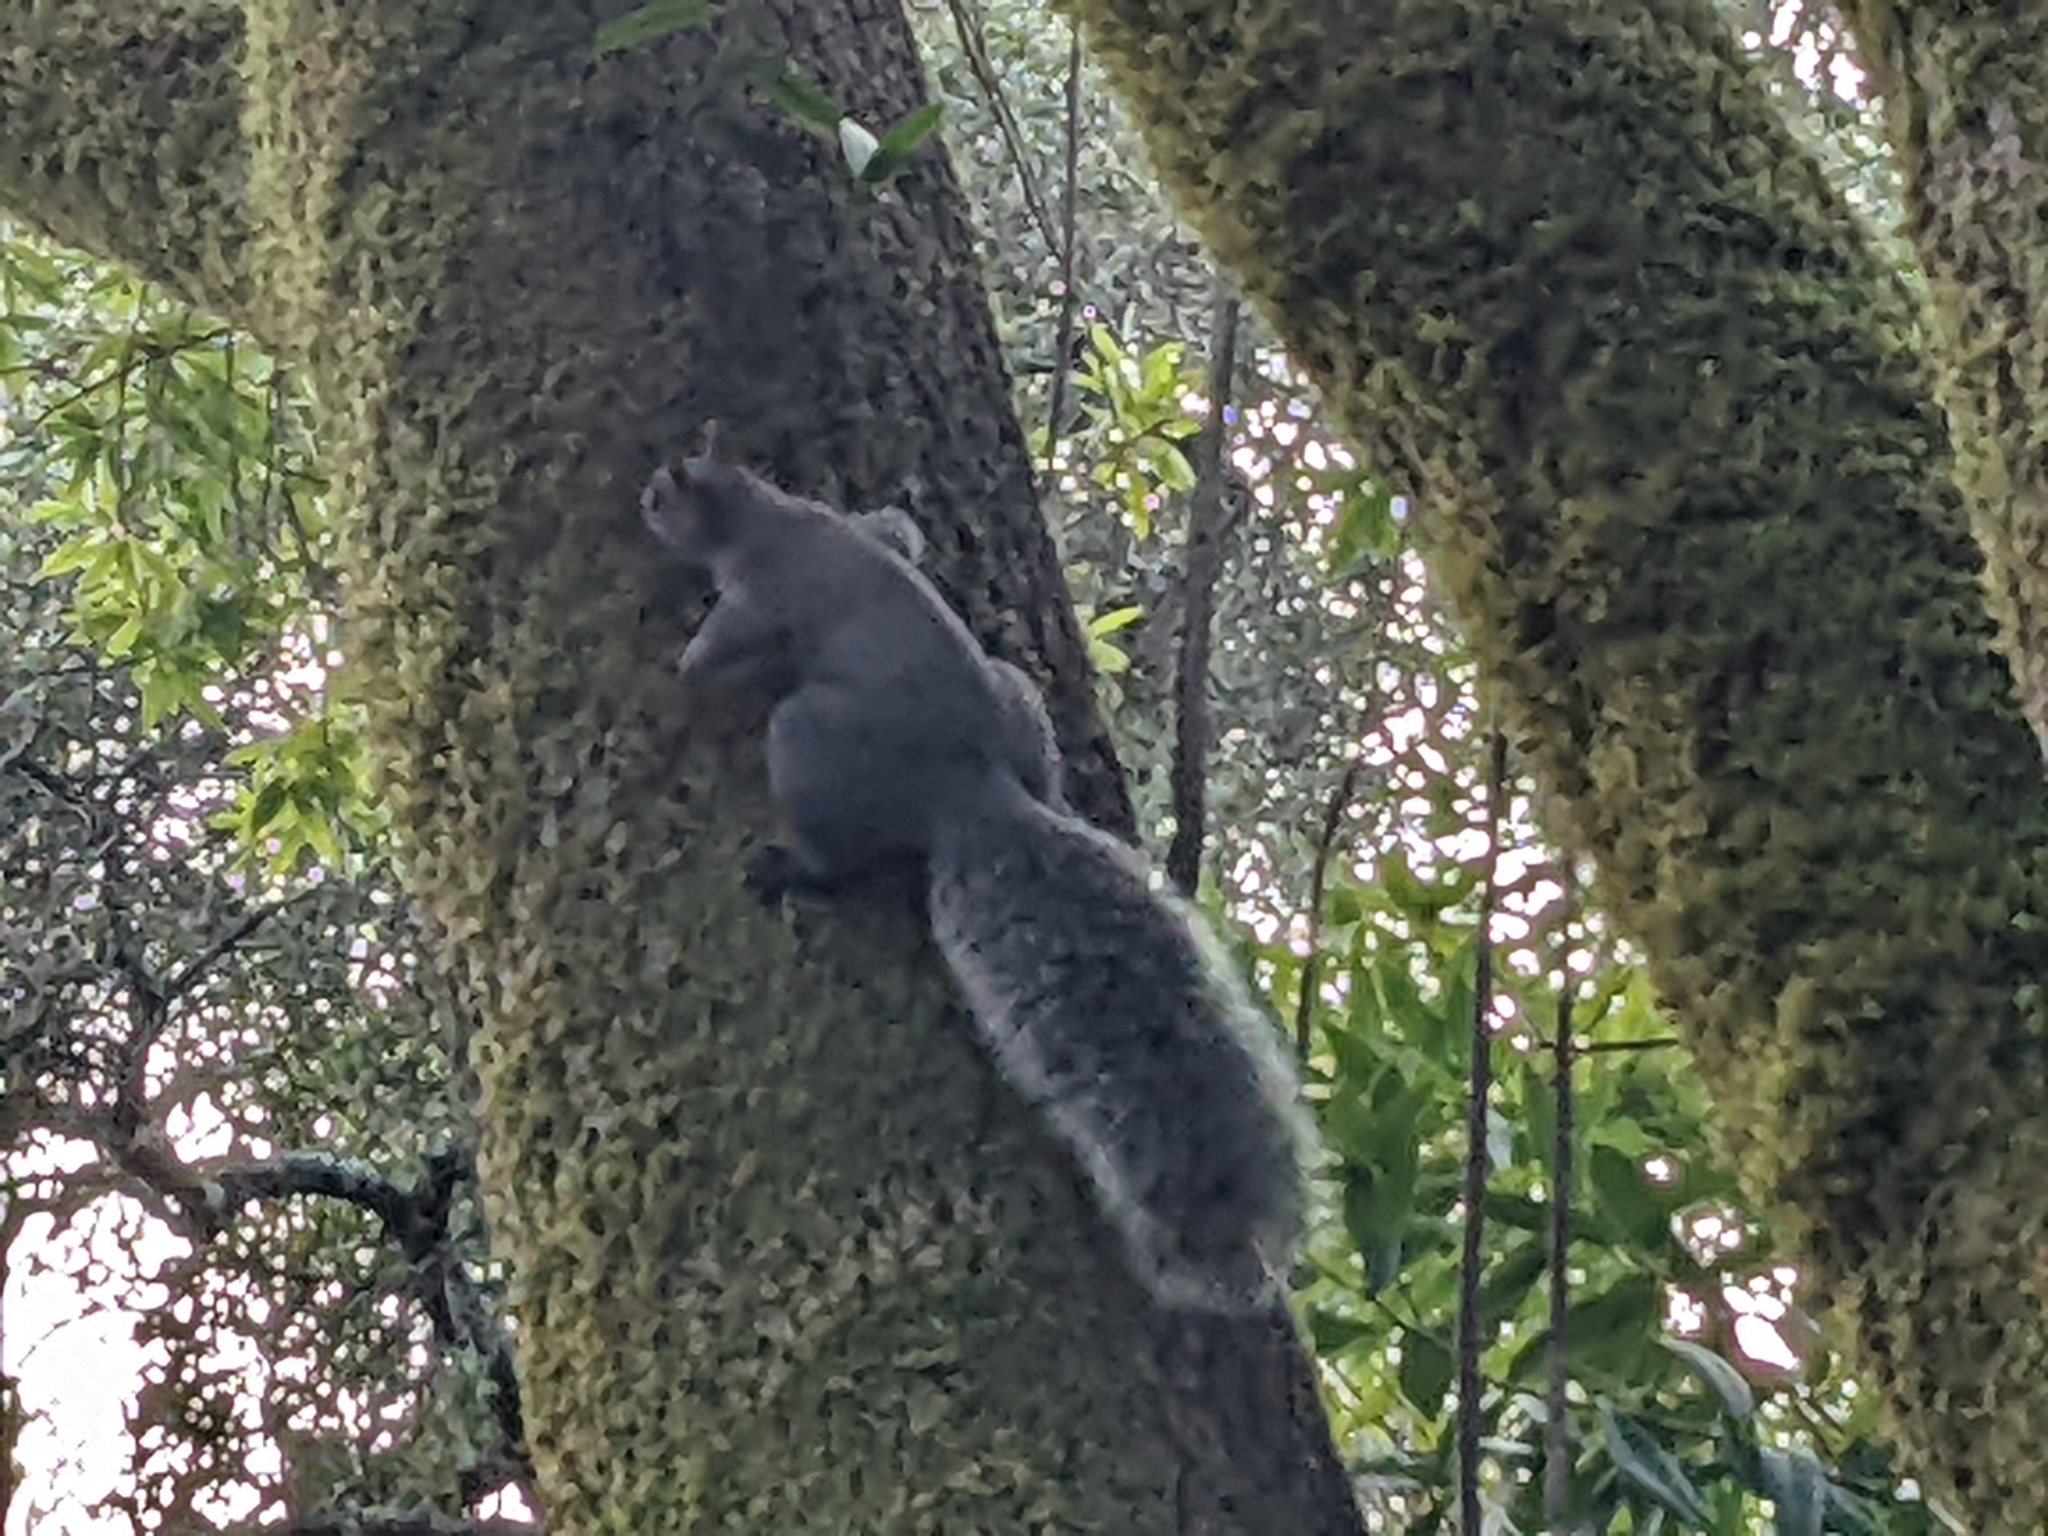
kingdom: Animalia
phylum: Chordata
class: Mammalia
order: Rodentia
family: Sciuridae
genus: Sciurus
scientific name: Sciurus griseus
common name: Western gray squirrel
